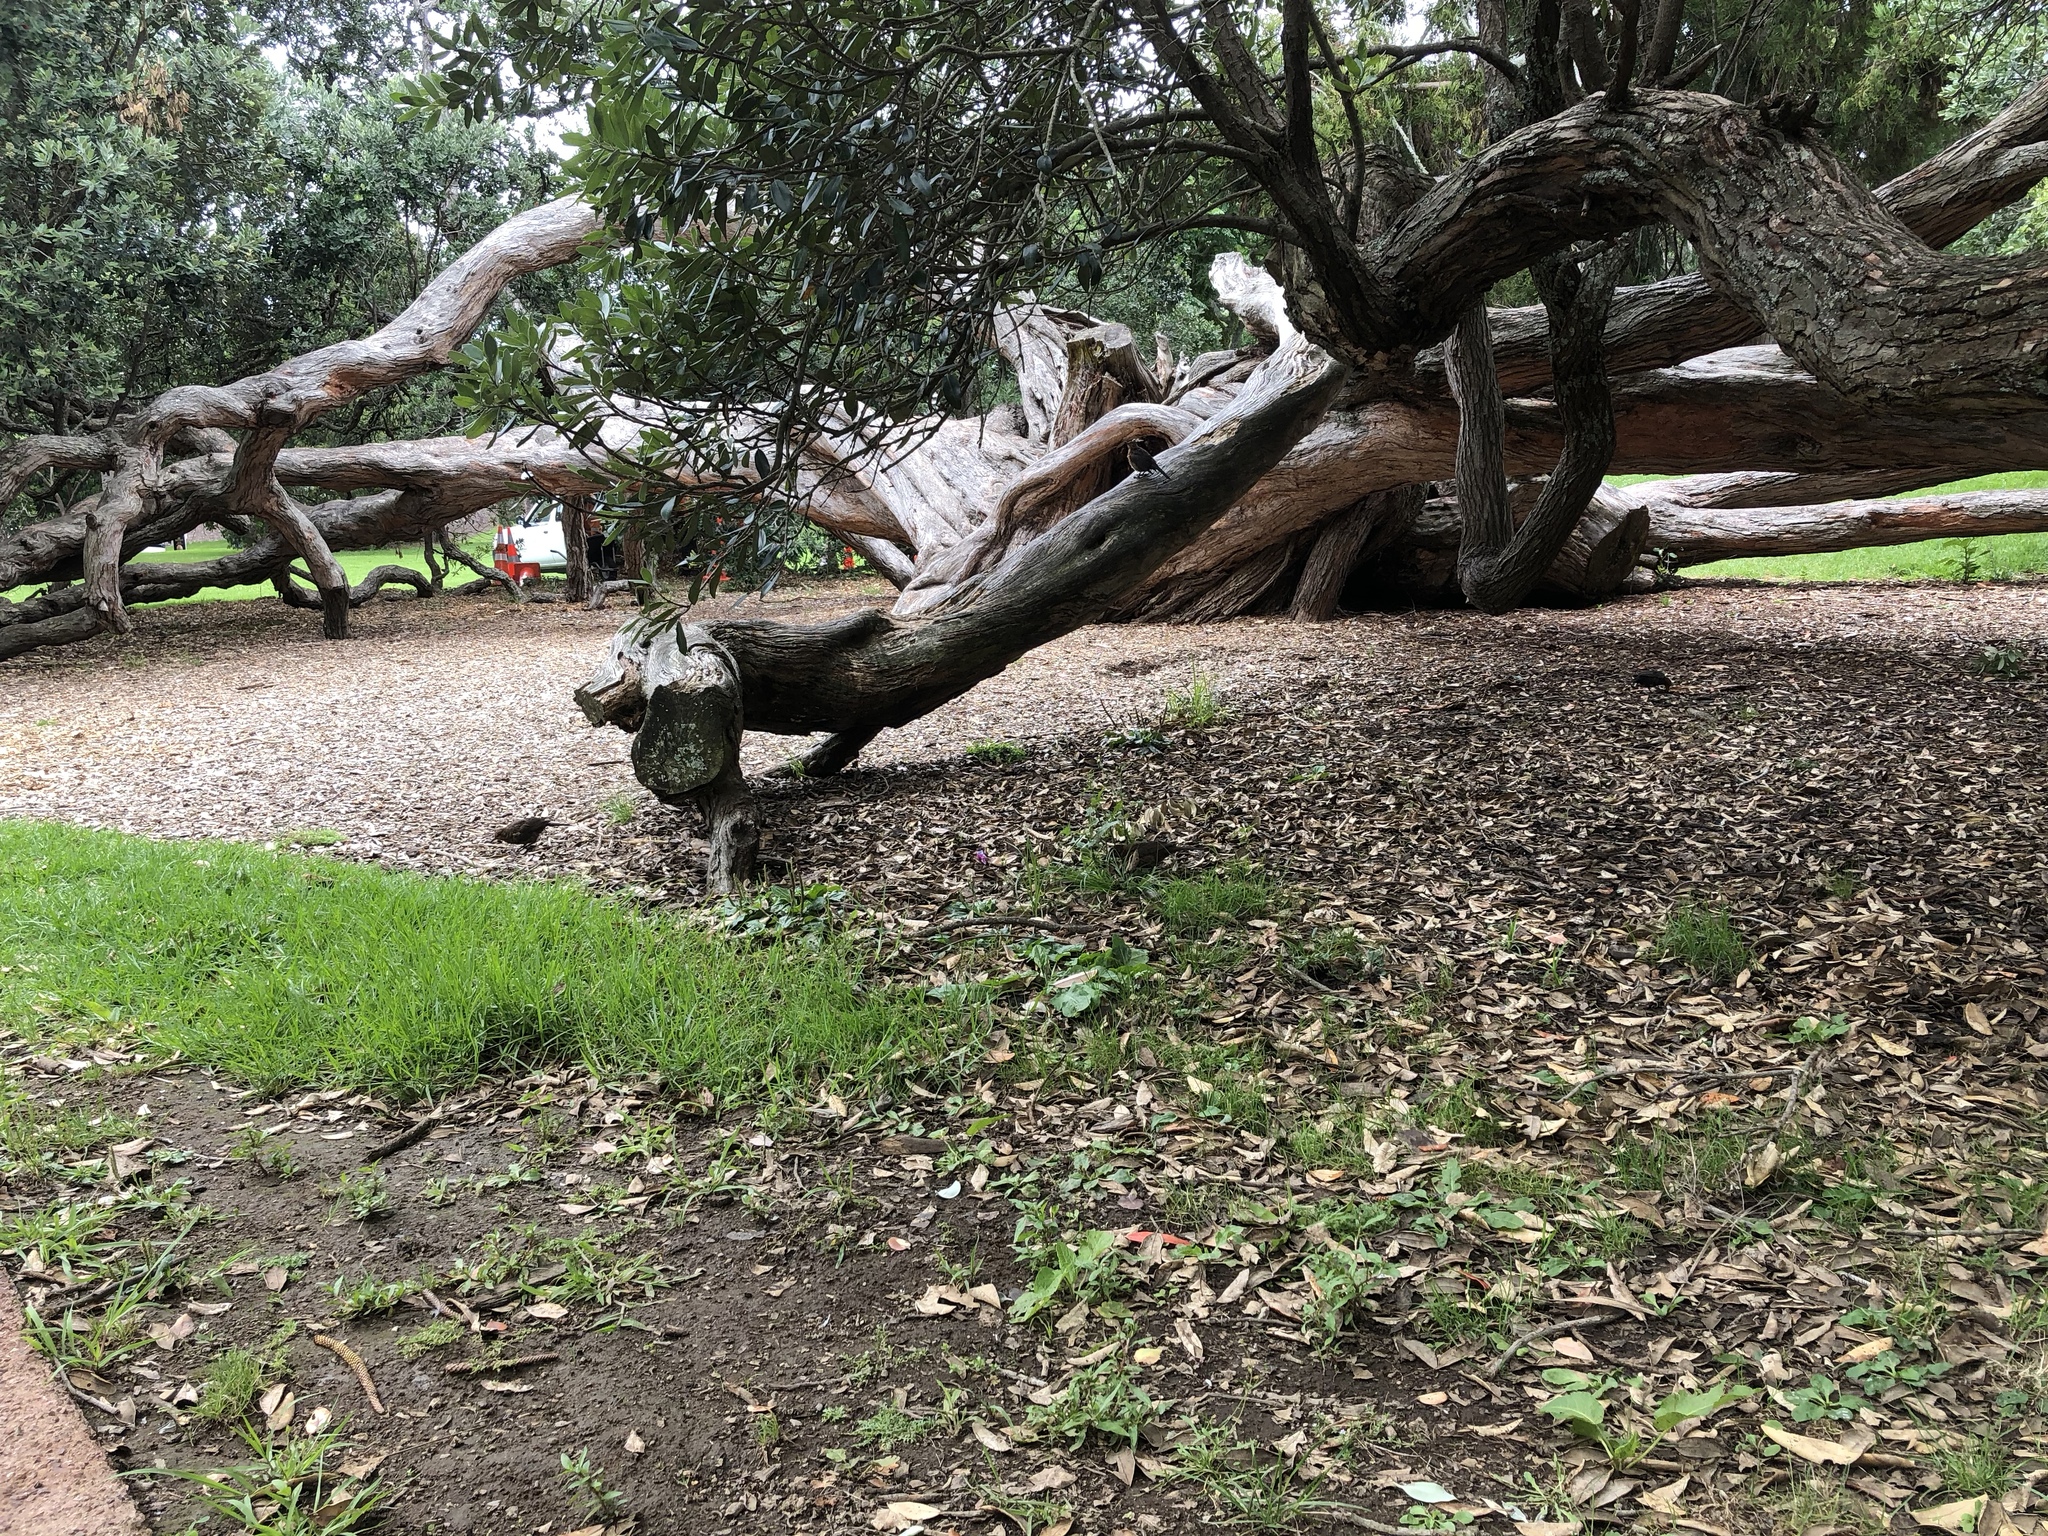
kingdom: Animalia
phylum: Chordata
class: Aves
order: Passeriformes
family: Turdidae
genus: Turdus
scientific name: Turdus merula
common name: Common blackbird
